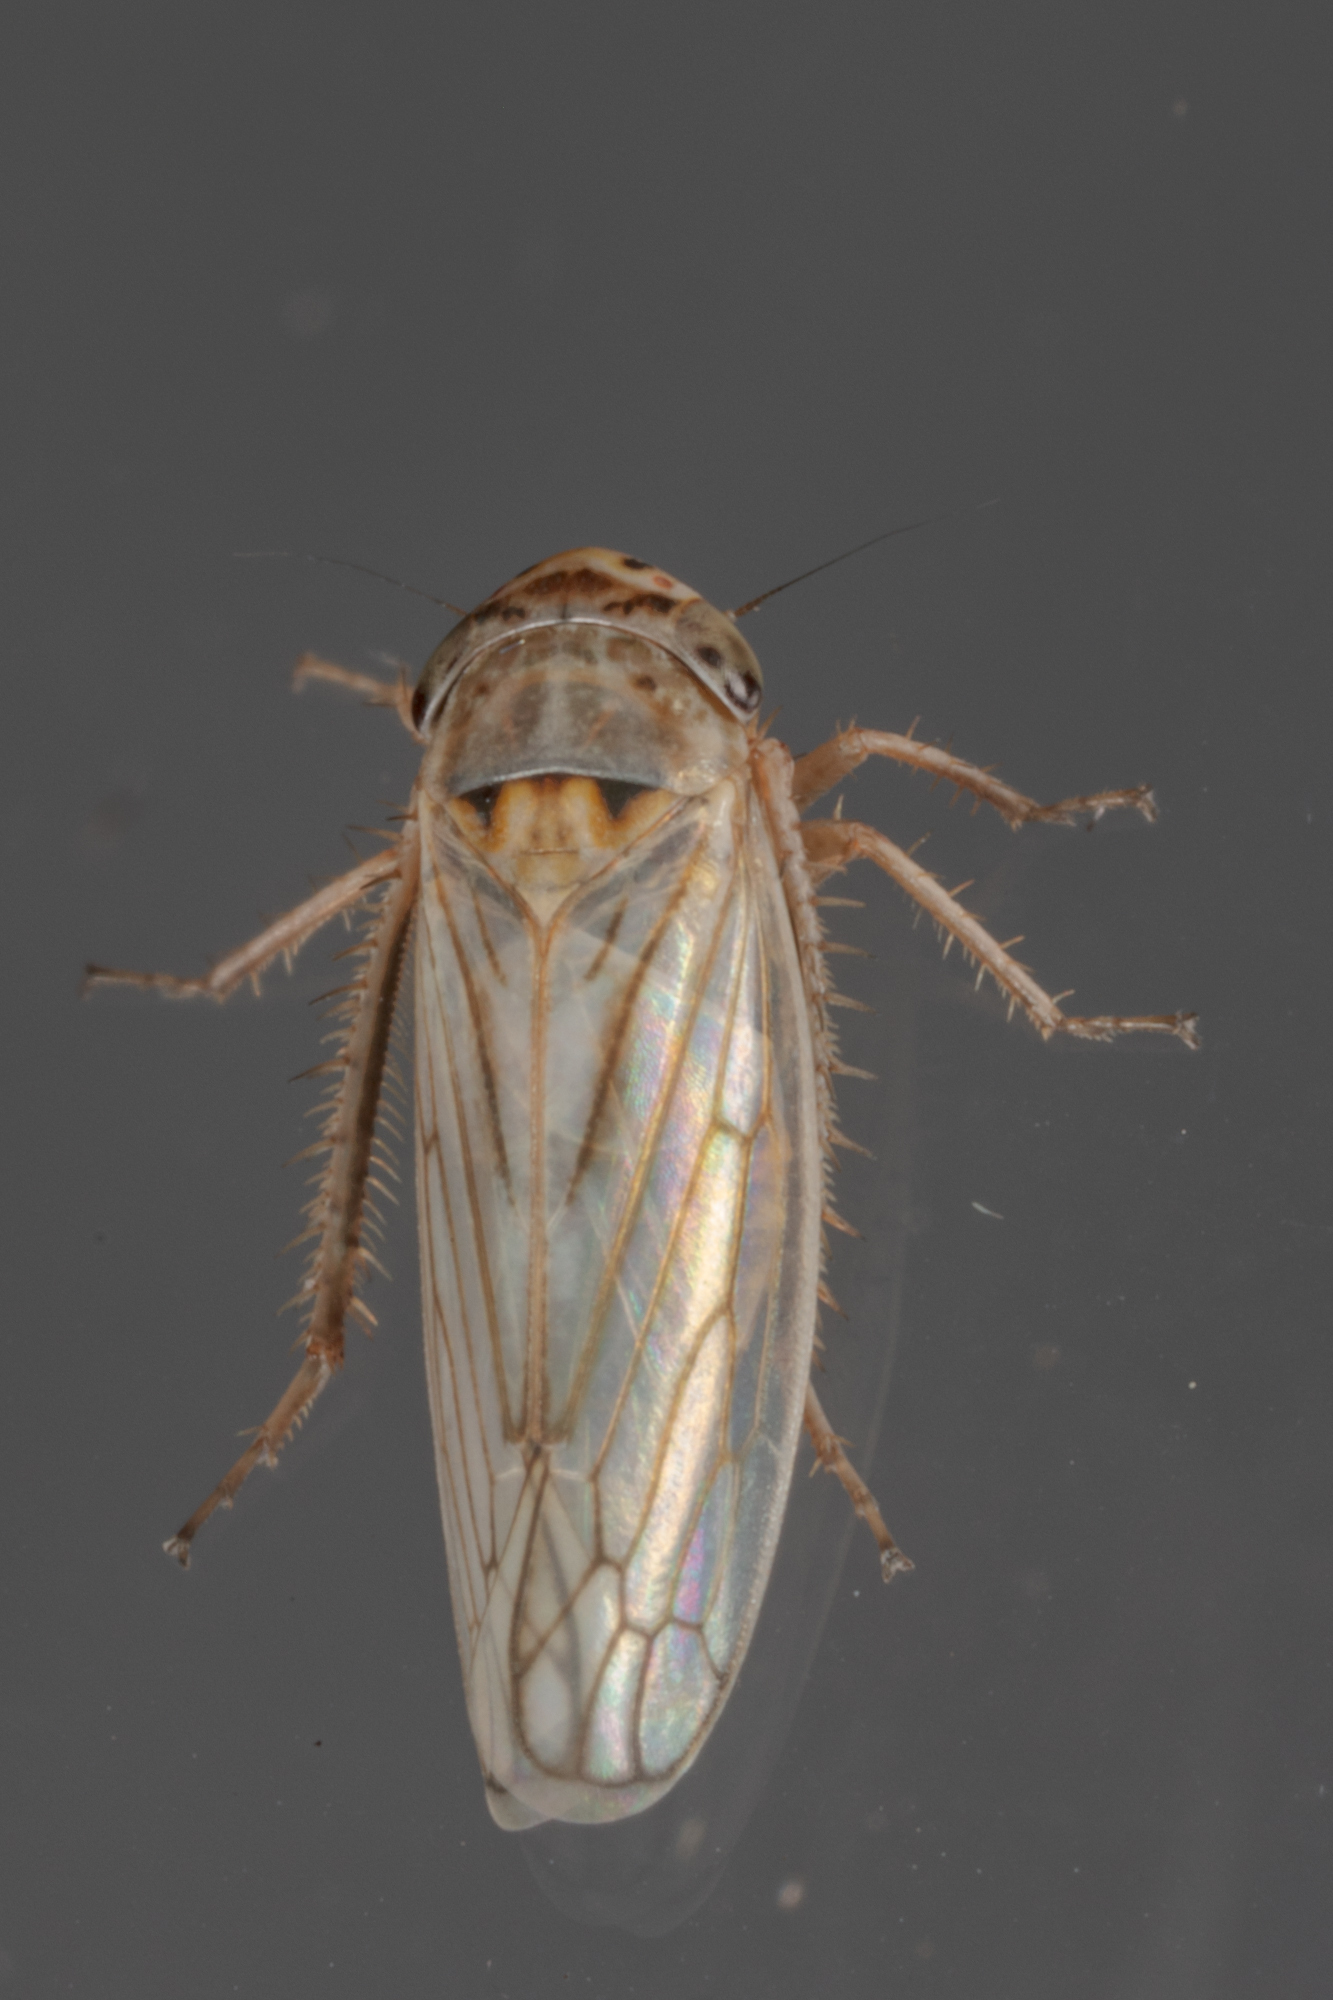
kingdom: Animalia
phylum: Arthropoda
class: Insecta
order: Hemiptera
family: Cicadellidae
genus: Exitianus
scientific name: Exitianus exitiosus
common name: Gray lawn leafhopper
